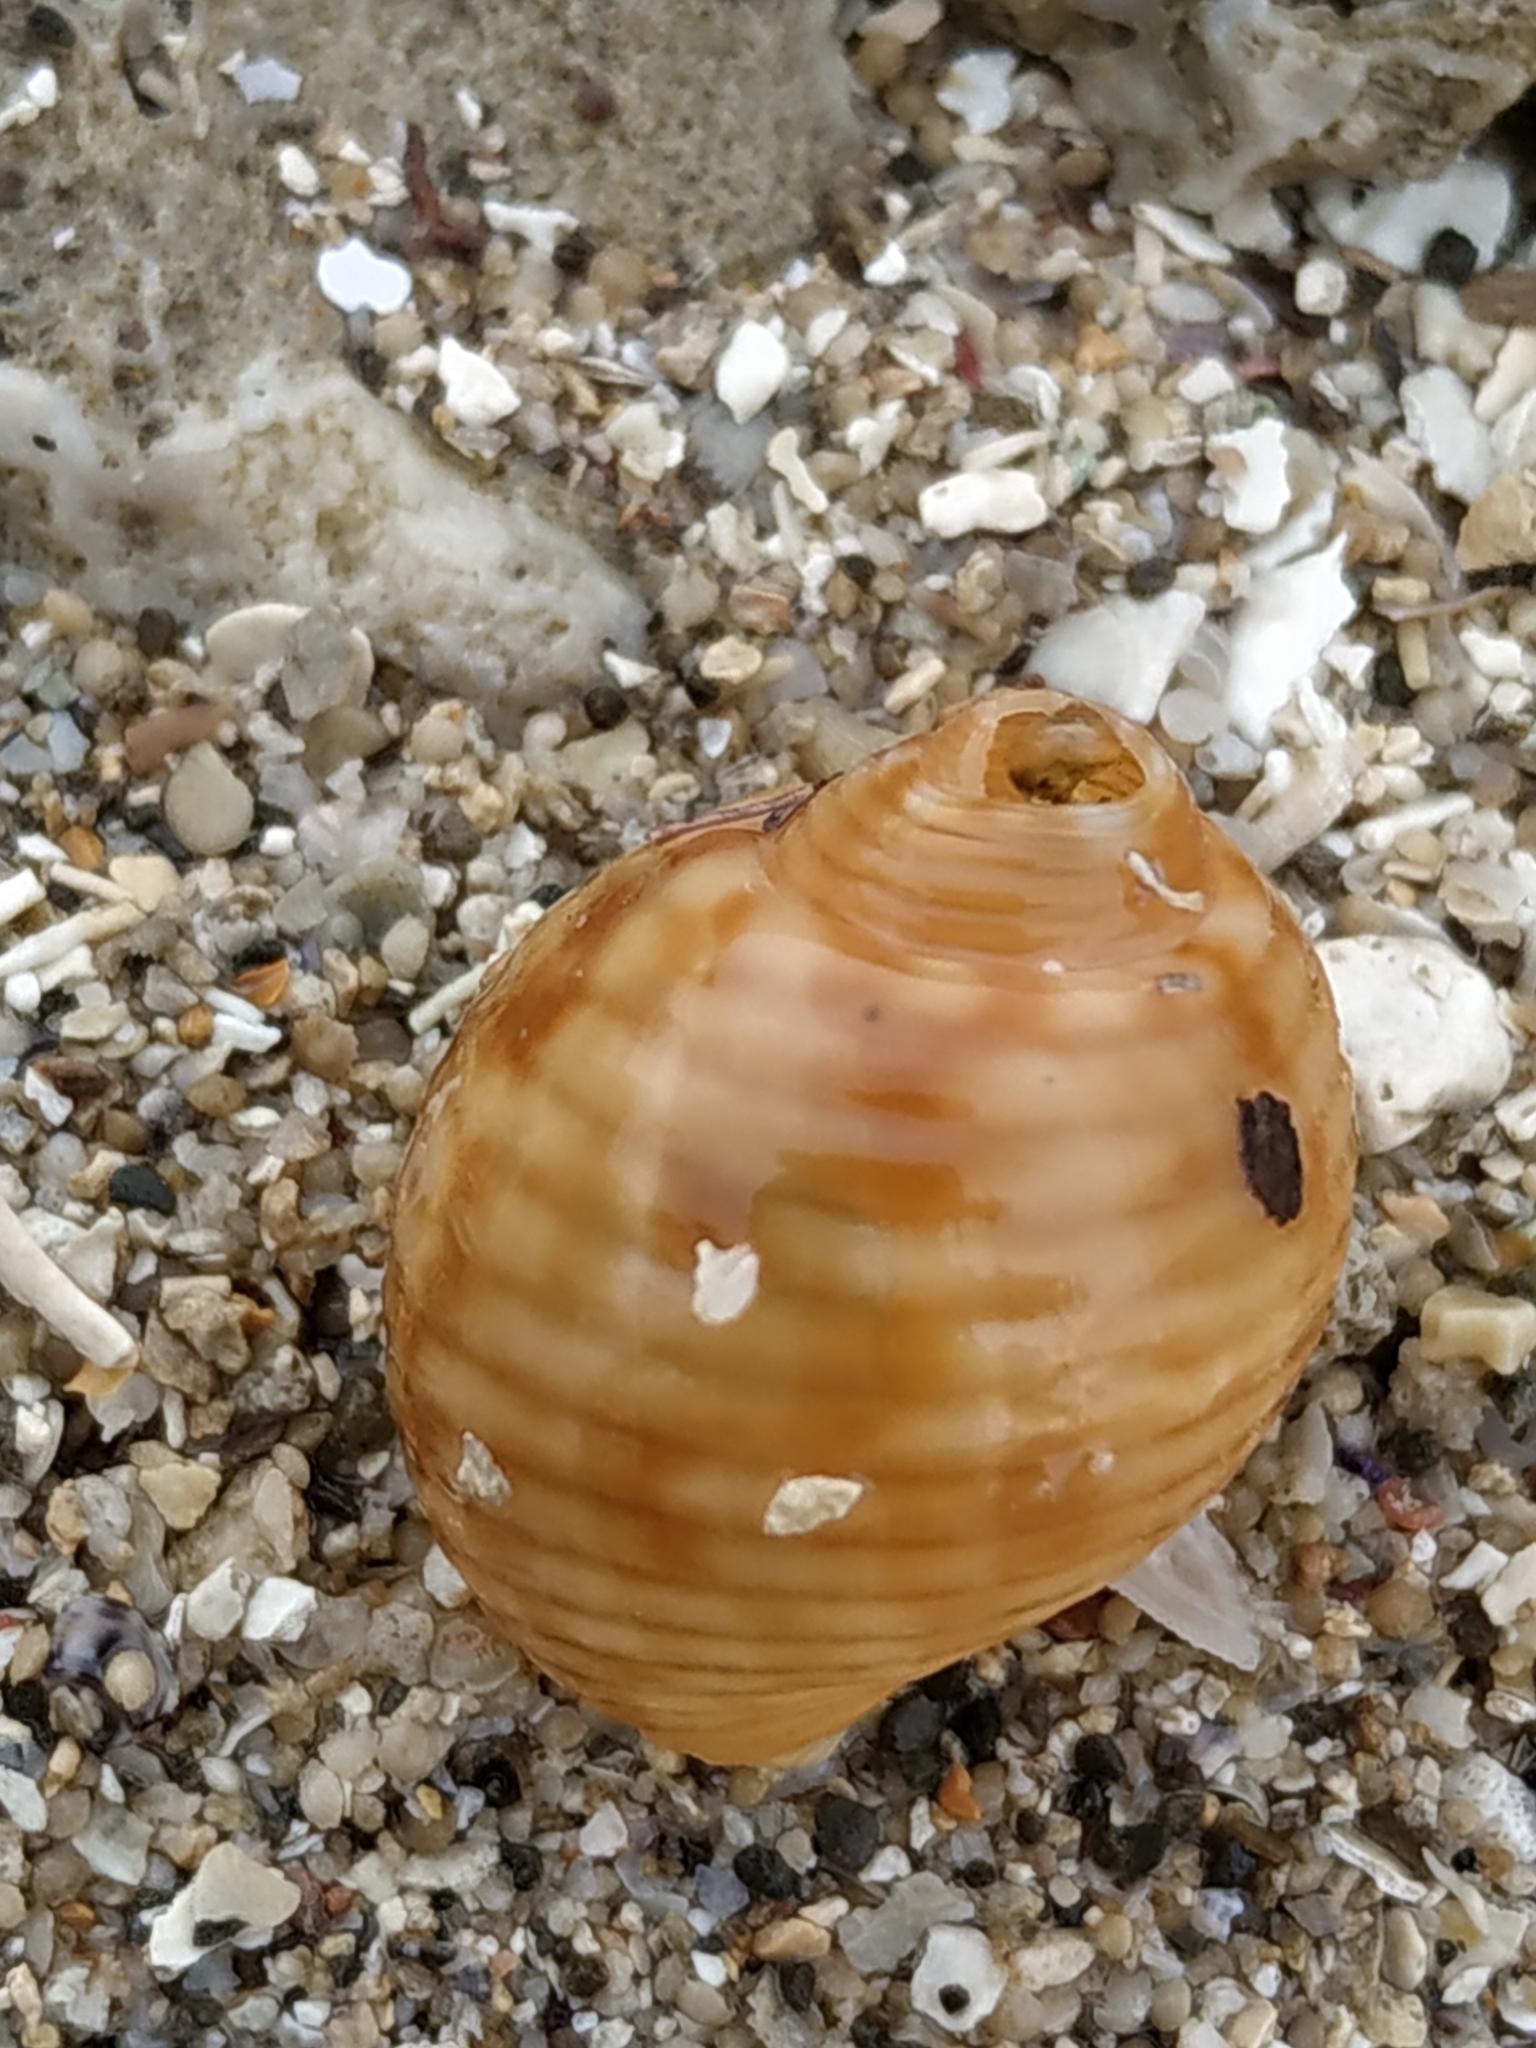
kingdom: Animalia
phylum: Mollusca
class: Gastropoda
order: Littorinimorpha
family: Tonnidae
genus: Tonna
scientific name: Tonna canaliculata
